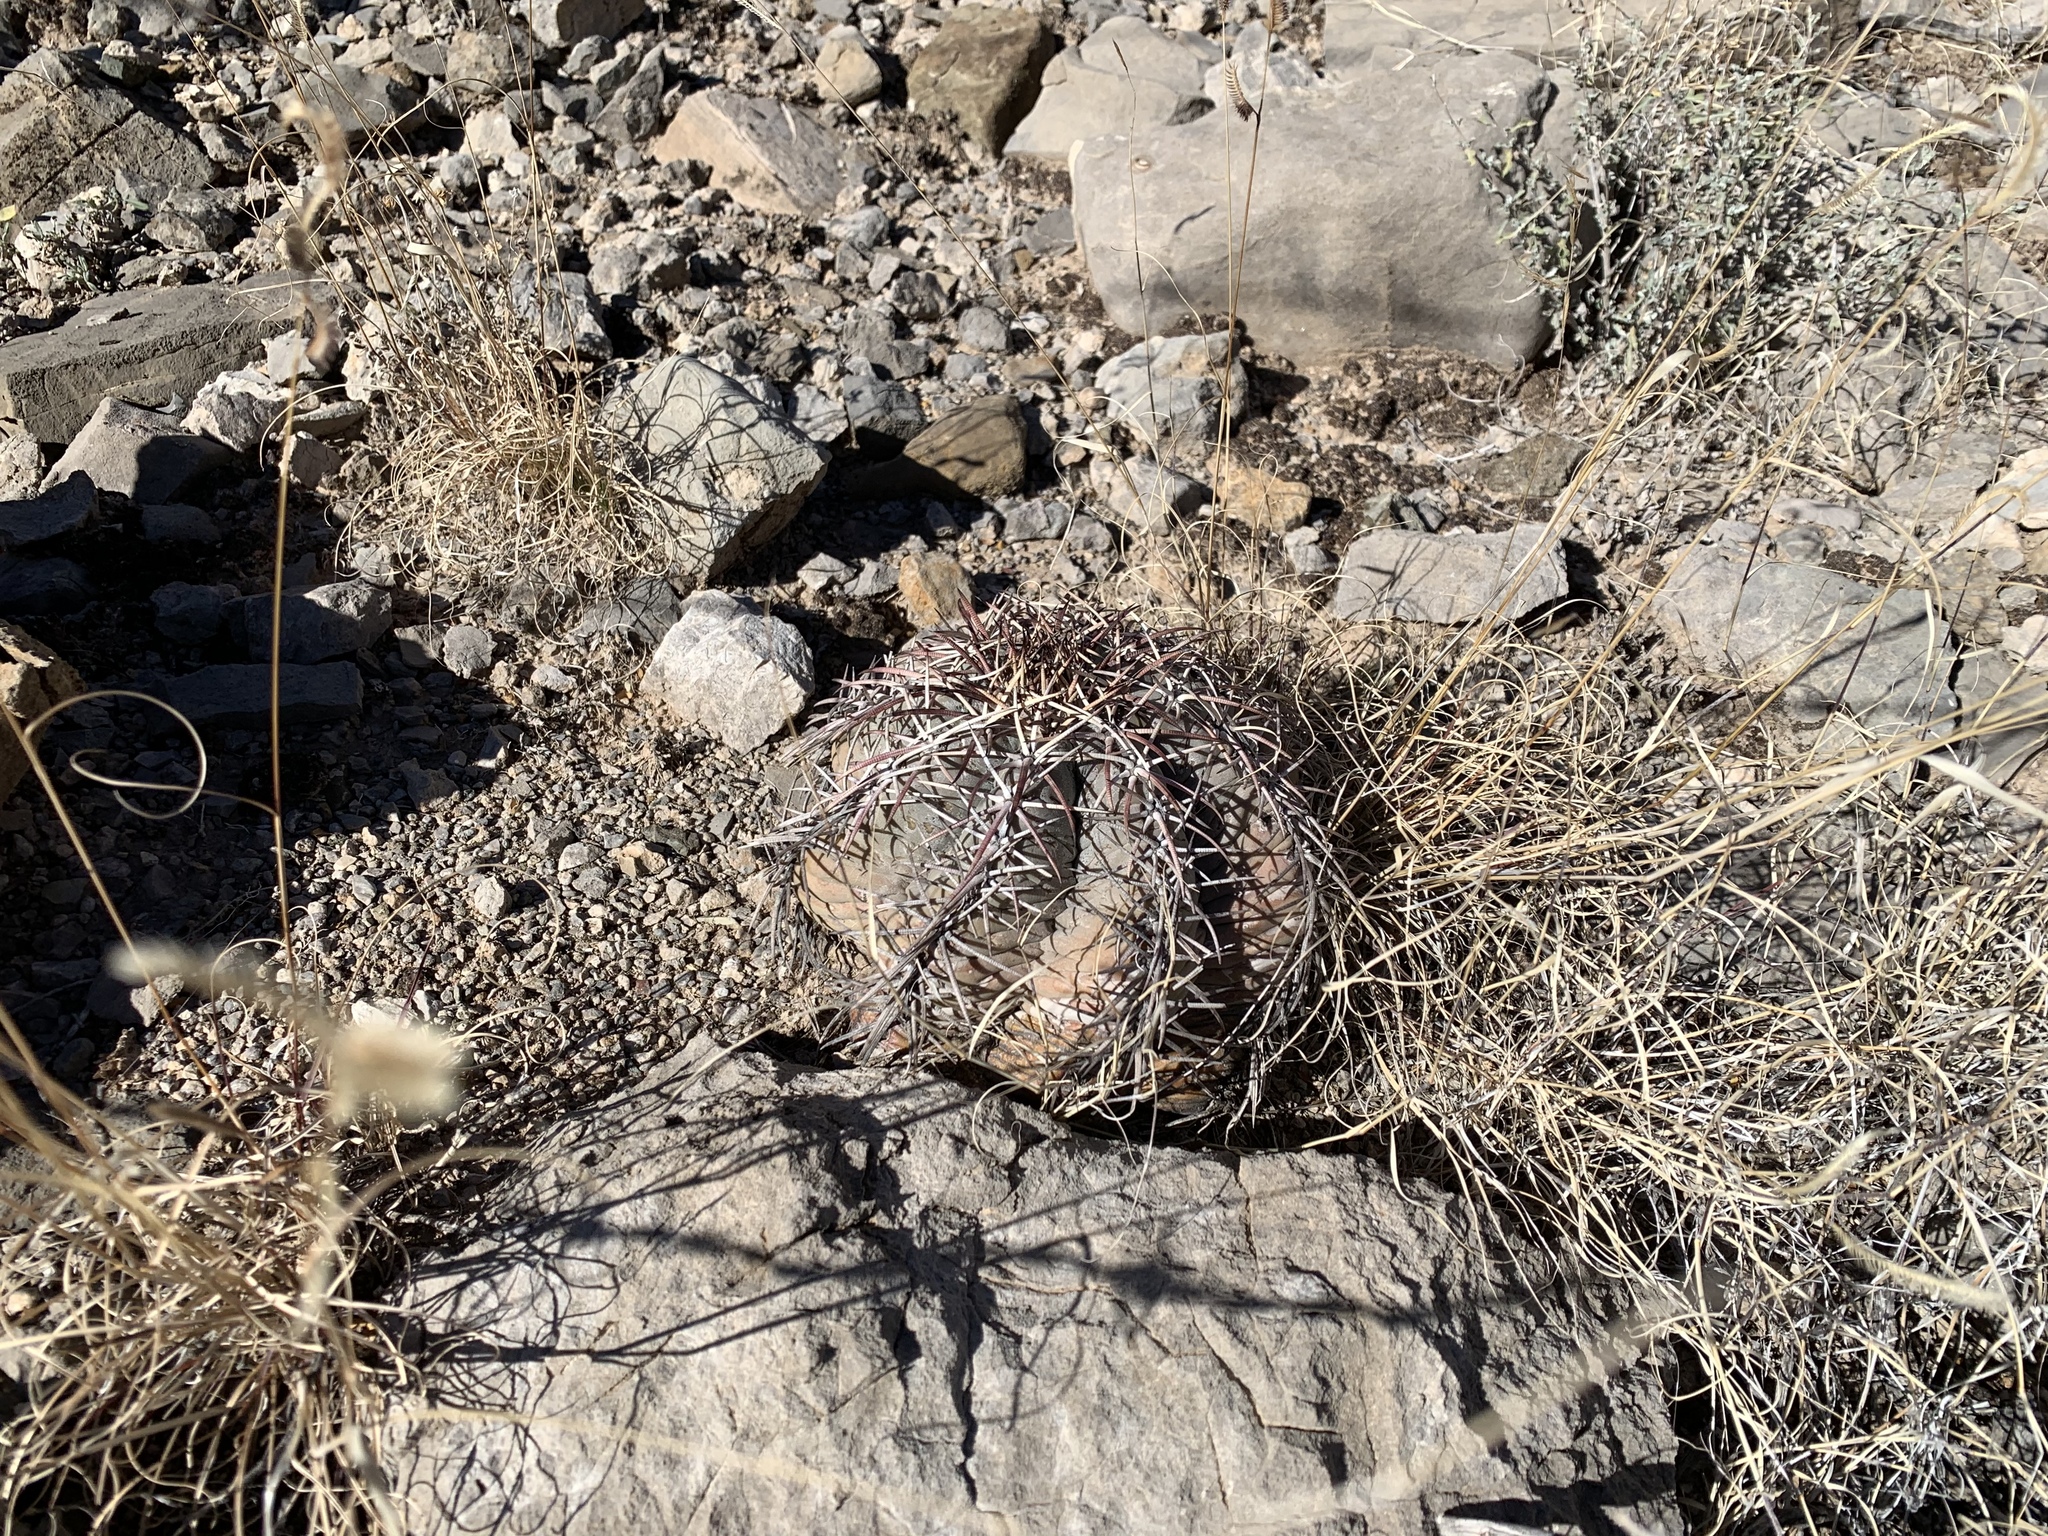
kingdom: Plantae
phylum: Tracheophyta
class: Magnoliopsida
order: Caryophyllales
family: Cactaceae
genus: Echinocactus
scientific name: Echinocactus horizonthalonius
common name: Devilshead
